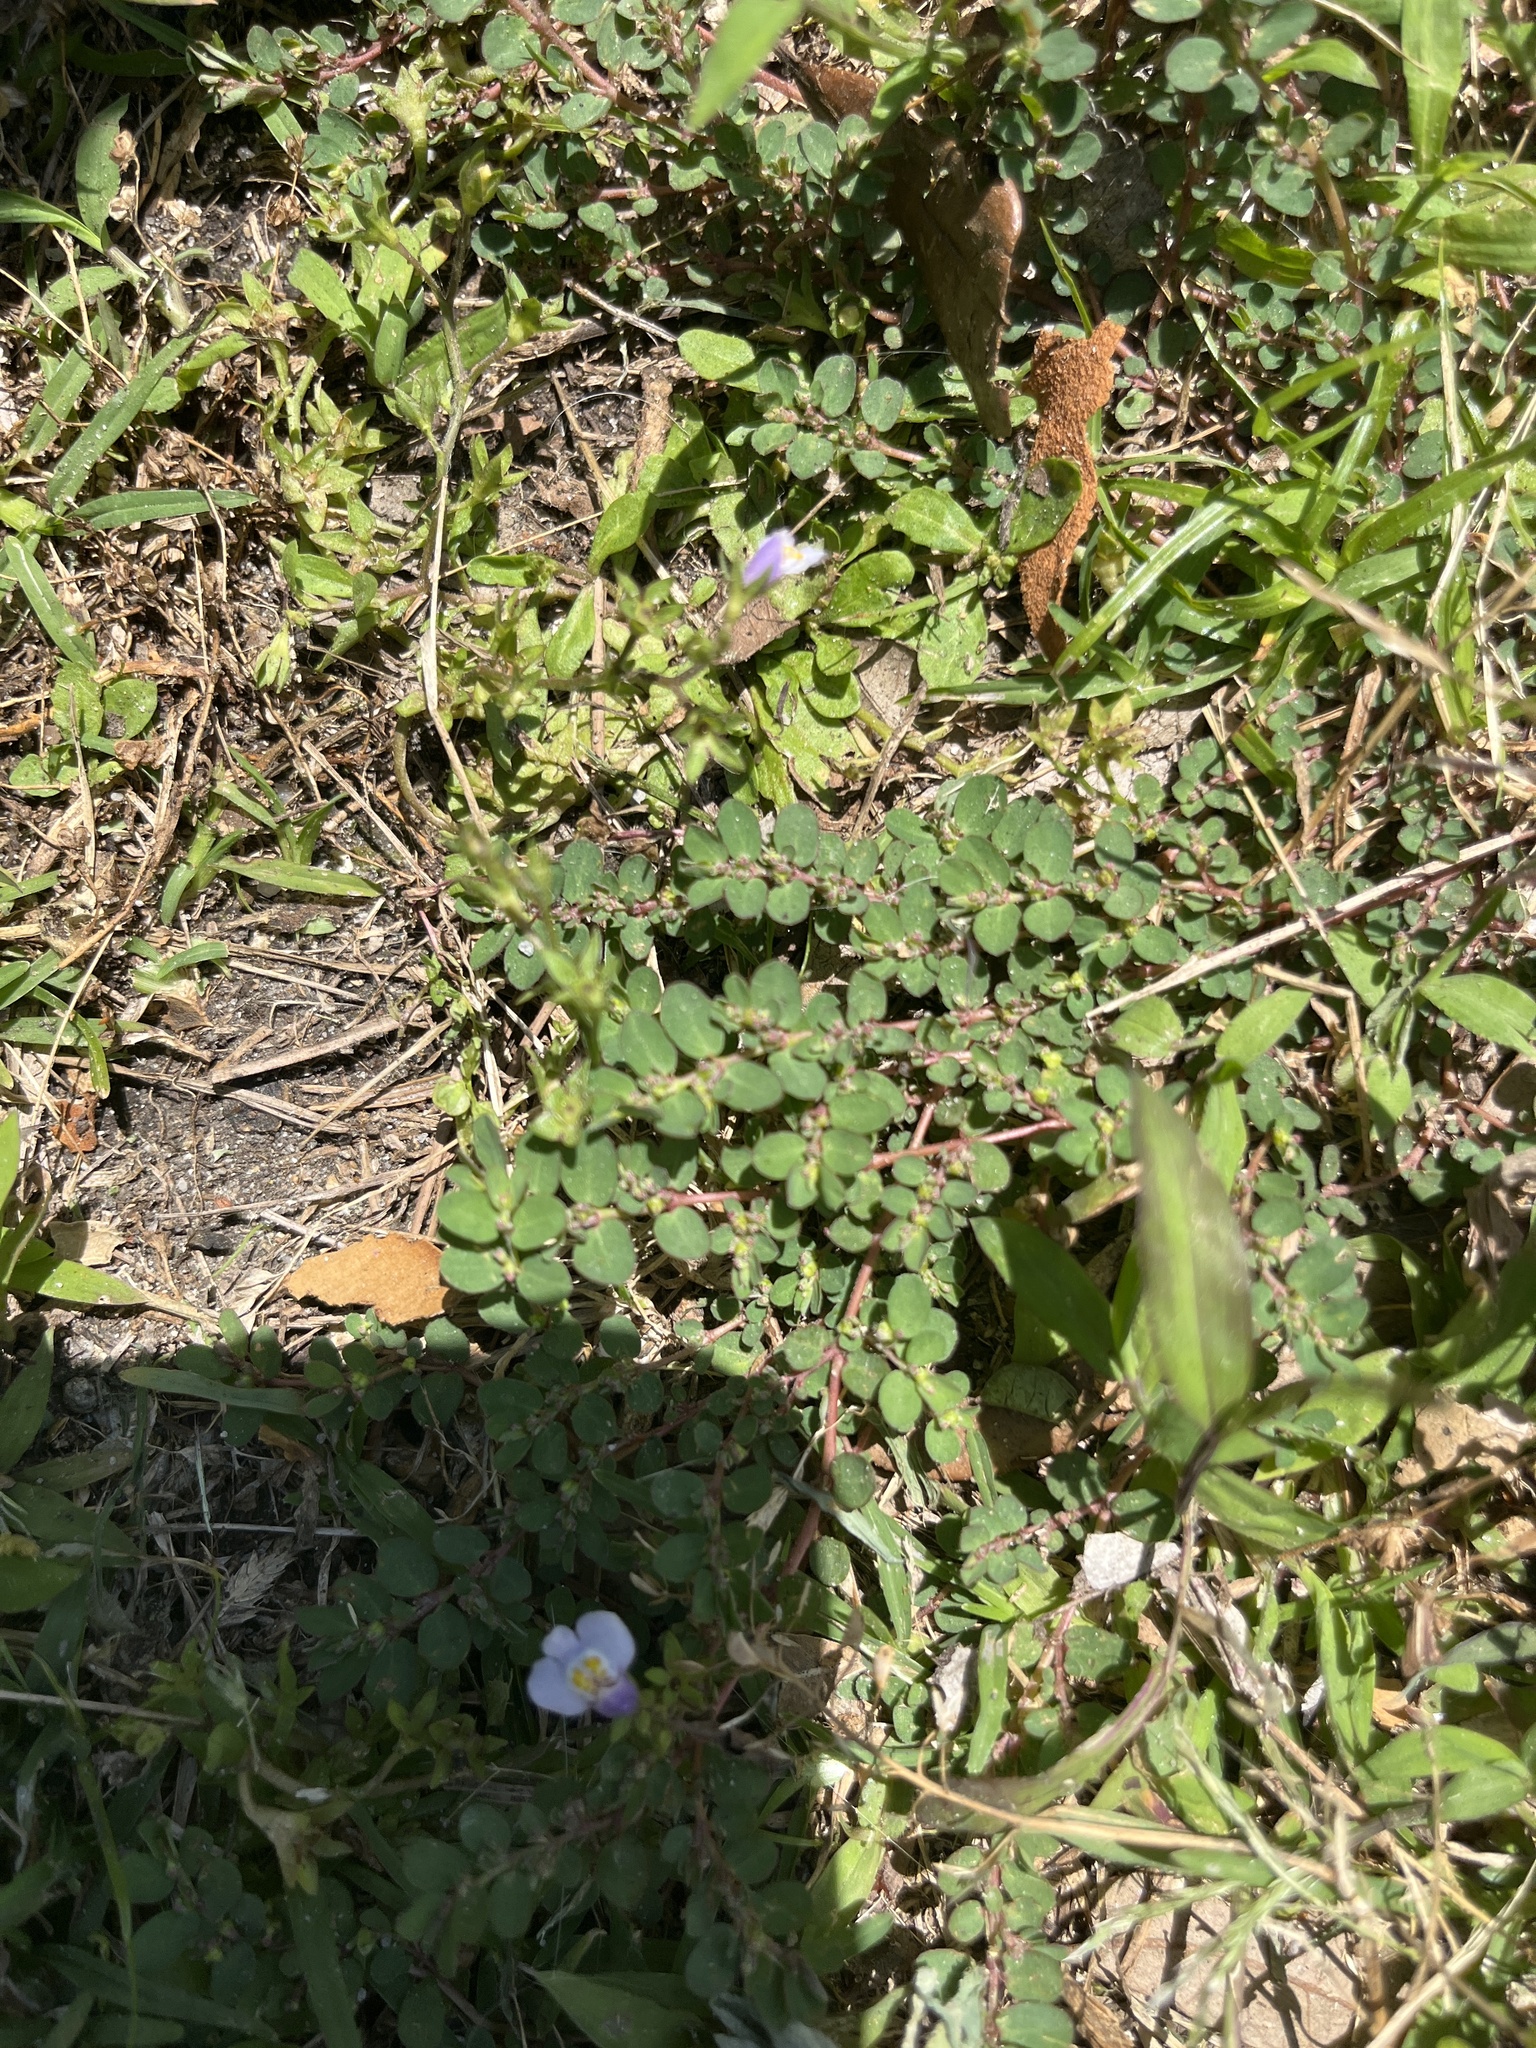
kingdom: Plantae
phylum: Tracheophyta
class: Magnoliopsida
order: Malpighiales
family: Euphorbiaceae
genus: Euphorbia
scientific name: Euphorbia prostrata
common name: Prostrate sandmat
